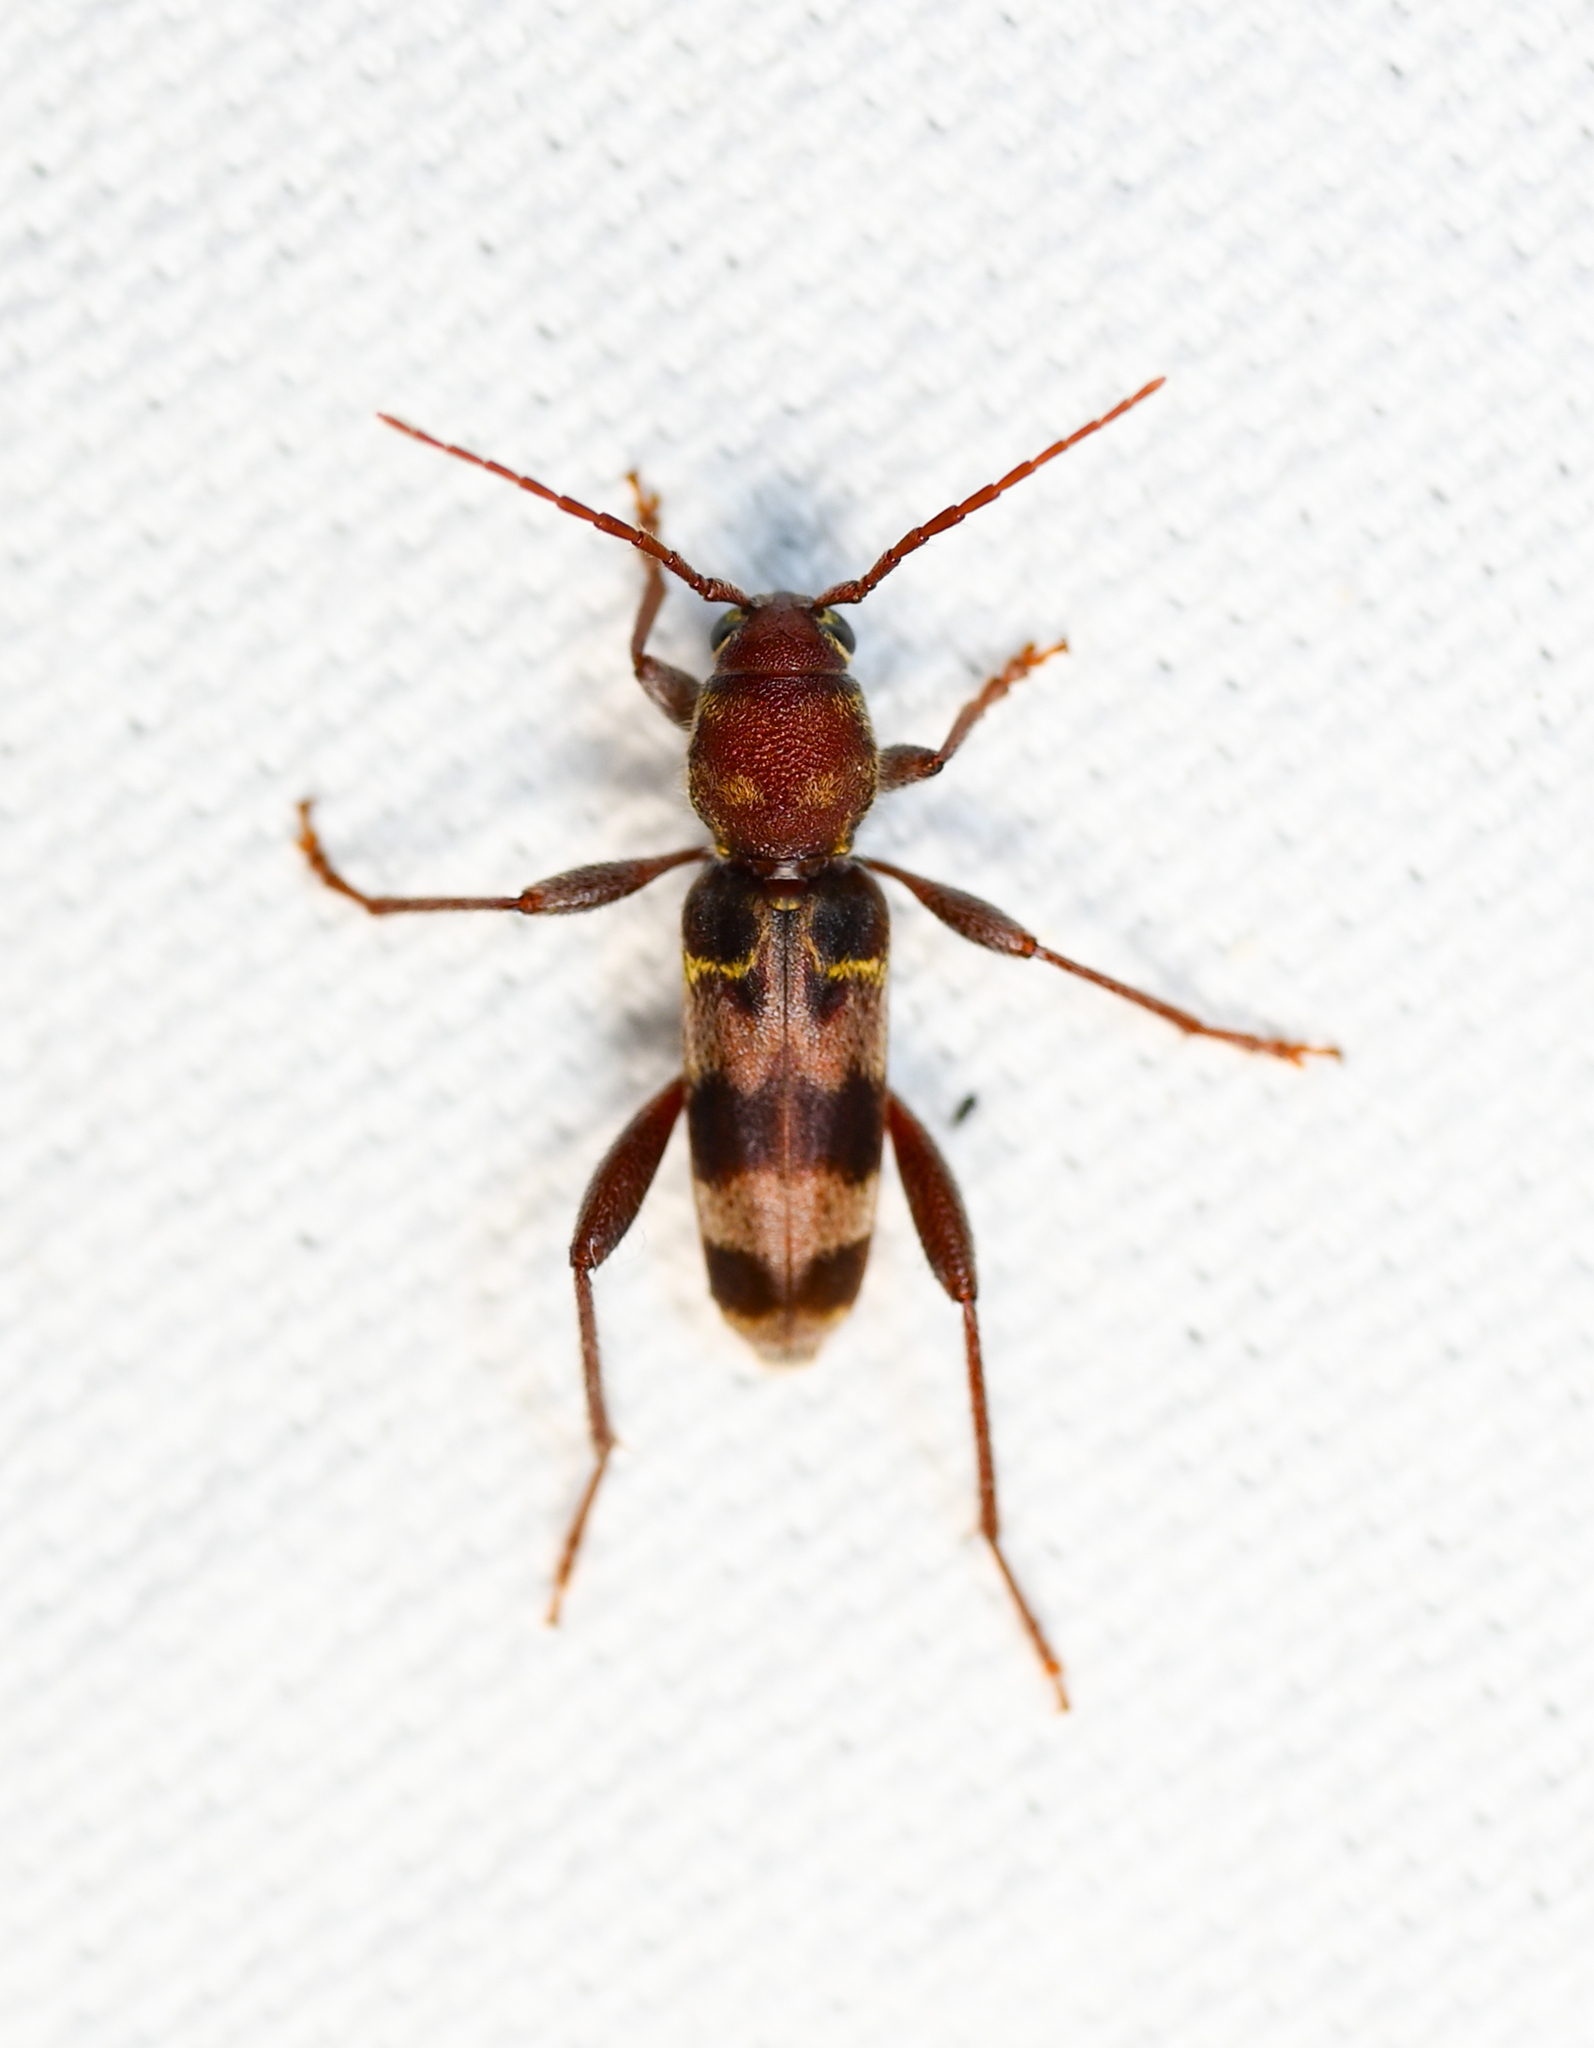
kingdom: Animalia
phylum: Arthropoda
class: Insecta
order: Coleoptera
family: Cerambycidae
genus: Xylotrechus
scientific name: Xylotrechus colonus
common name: Long-horned beetle
